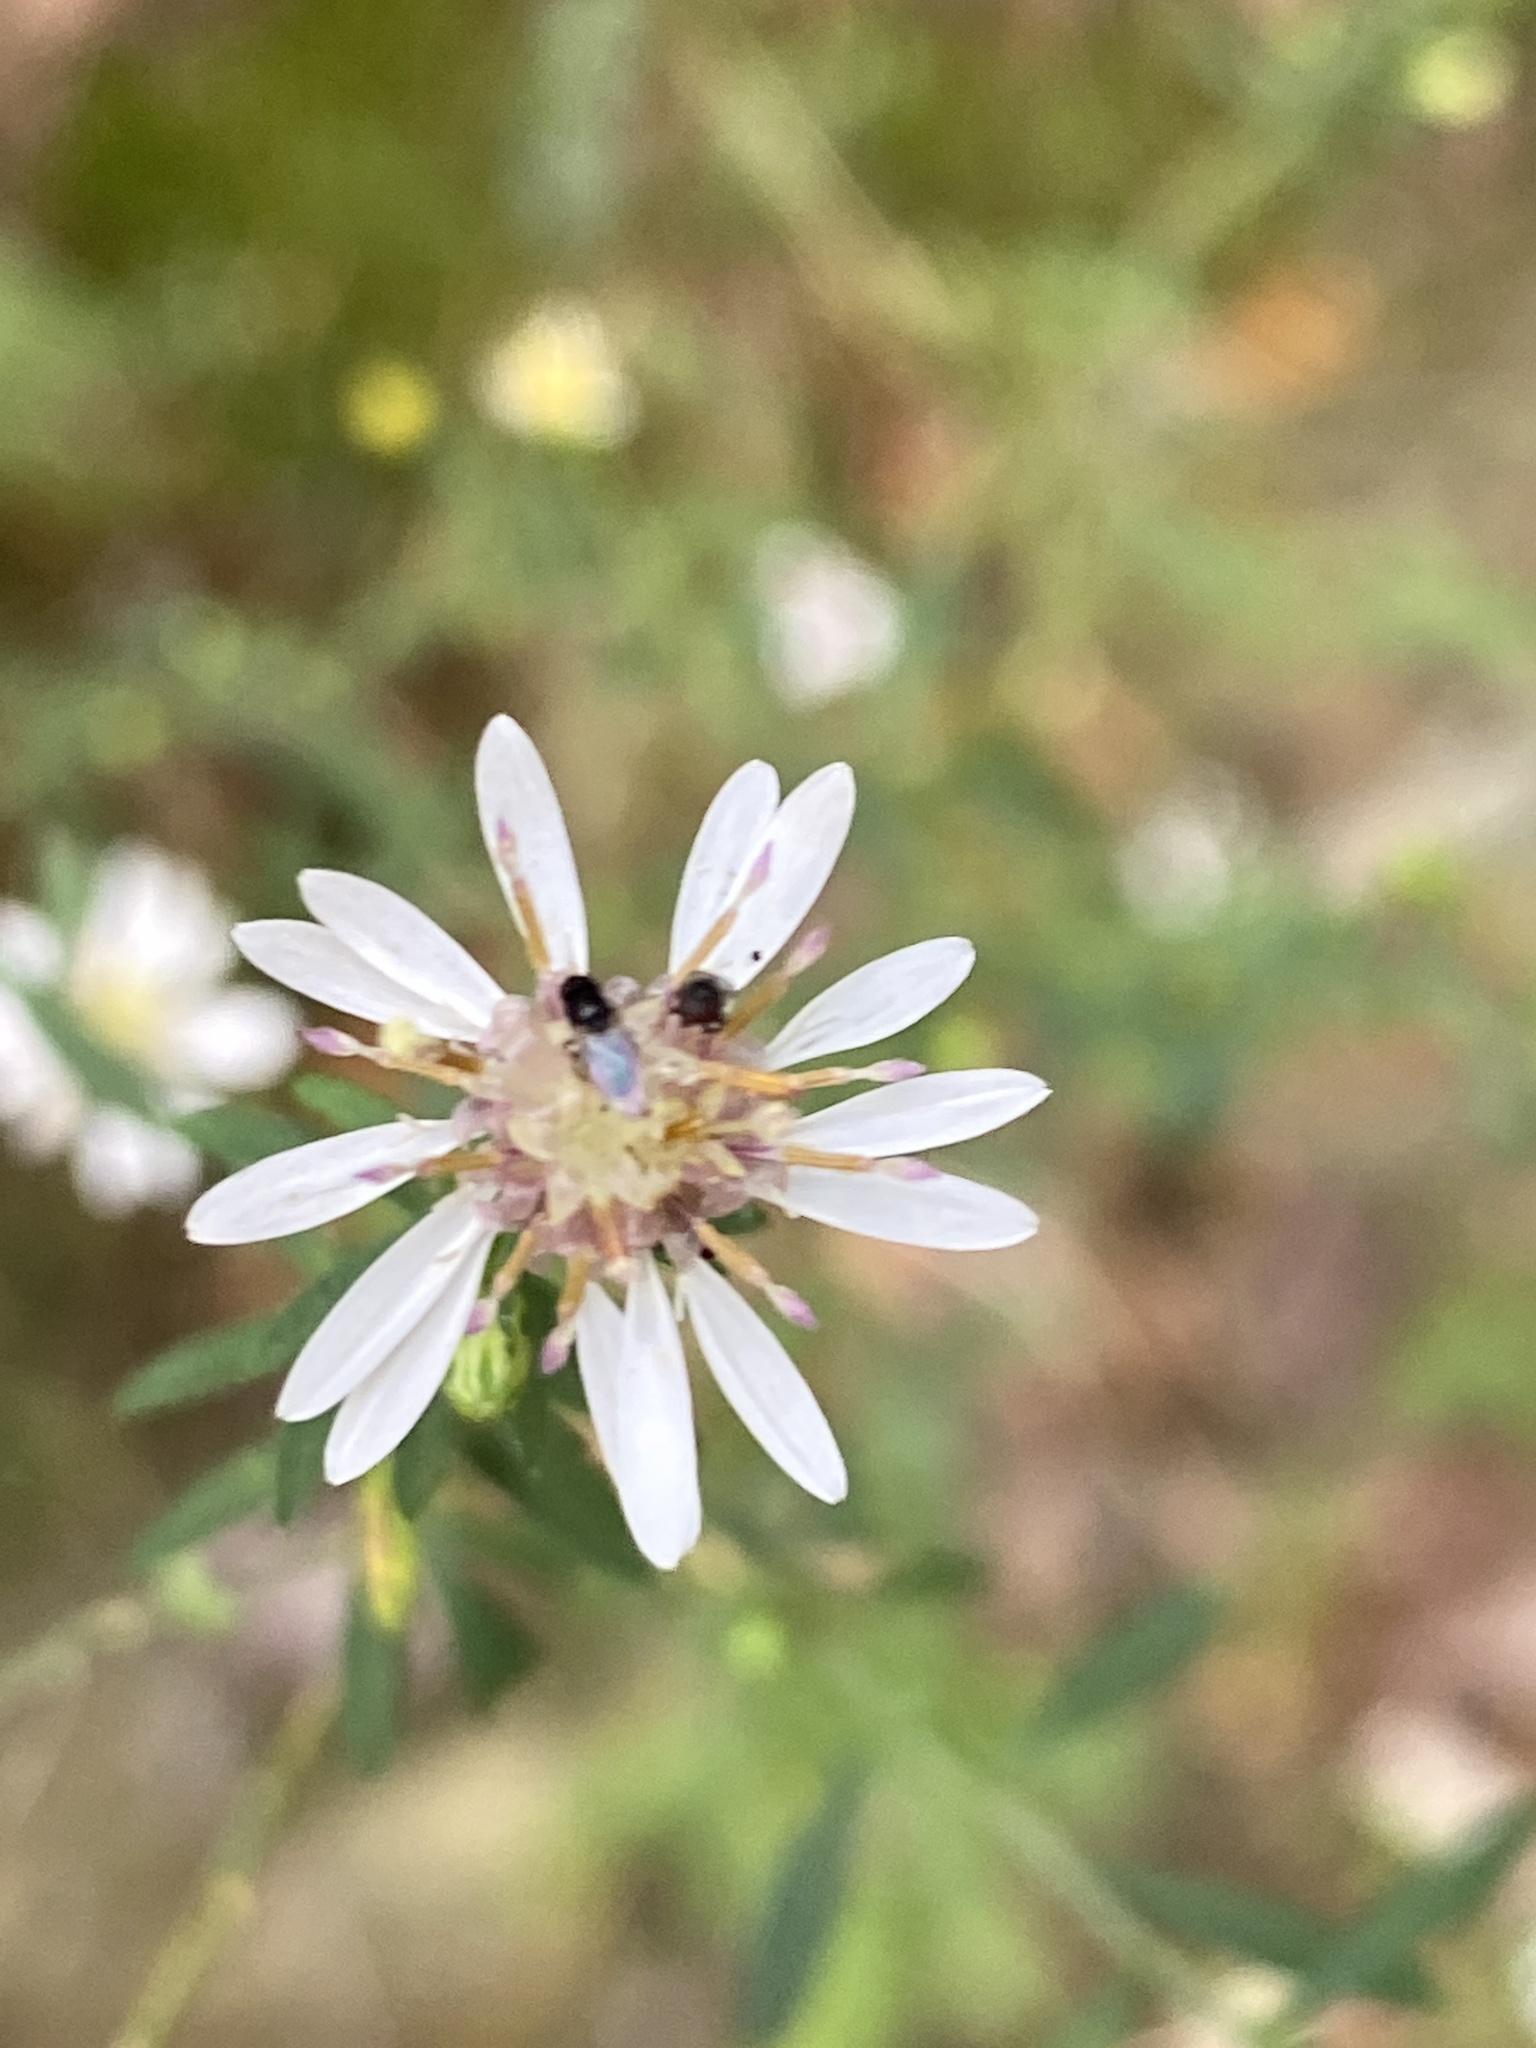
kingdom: Plantae
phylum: Tracheophyta
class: Magnoliopsida
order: Asterales
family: Asteraceae
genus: Symphyotrichum
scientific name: Symphyotrichum lateriflorum
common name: Calico aster
